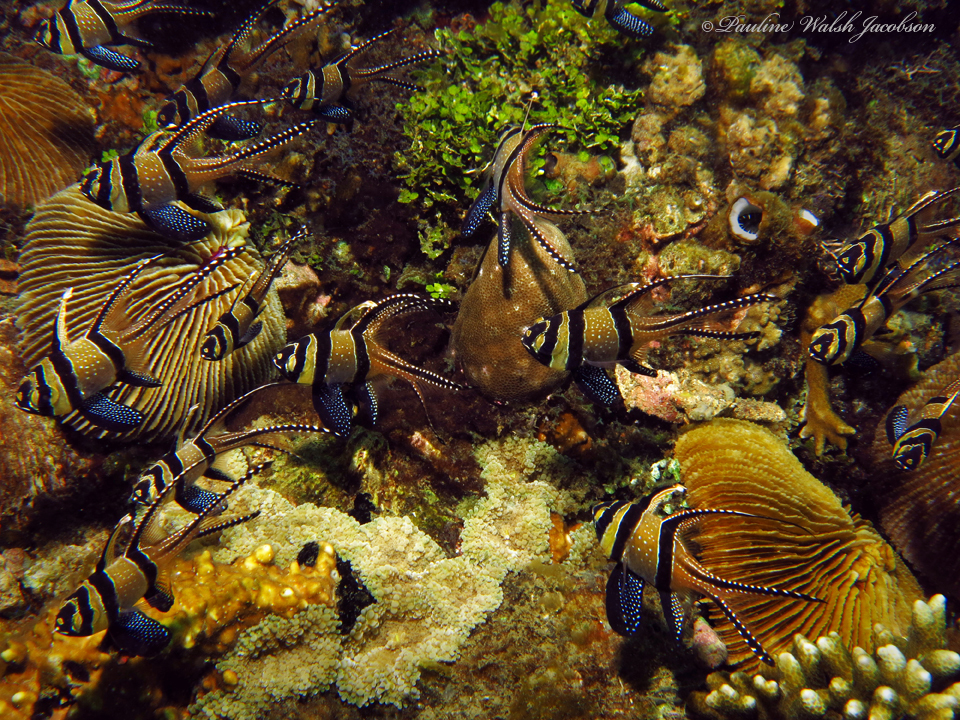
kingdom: Animalia
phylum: Chordata
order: Perciformes
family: Apogonidae
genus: Pterapogon
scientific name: Pterapogon kauderni
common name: Banggai cardinalfish
